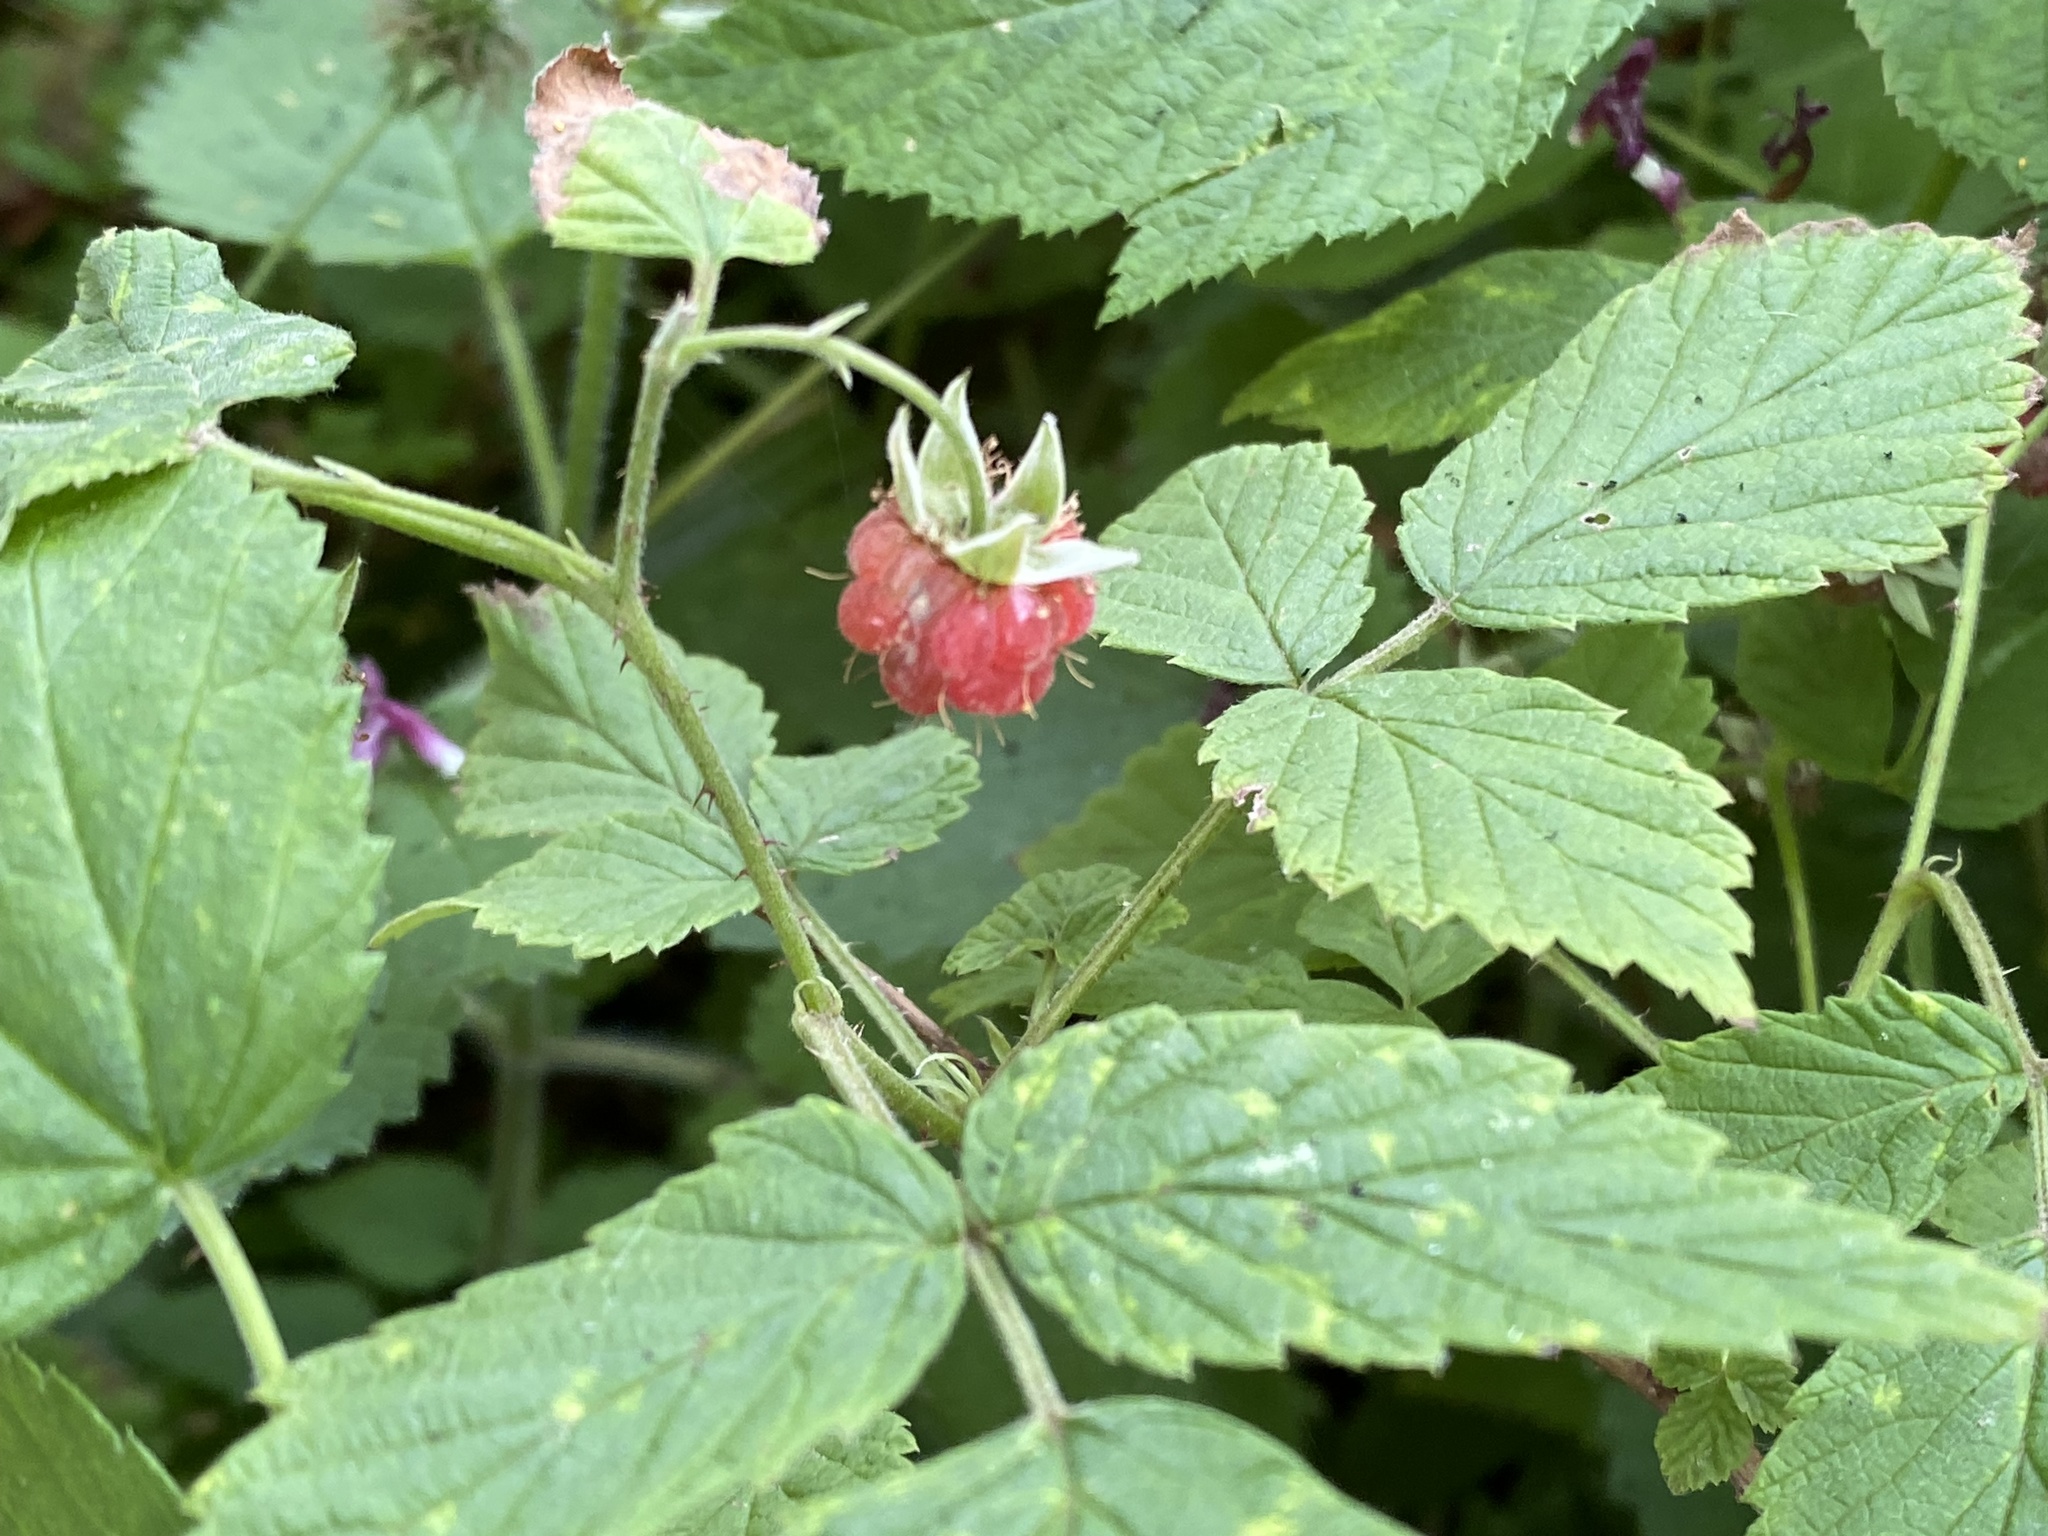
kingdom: Plantae
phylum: Tracheophyta
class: Magnoliopsida
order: Rosales
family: Rosaceae
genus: Rubus
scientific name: Rubus idaeus
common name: Raspberry
